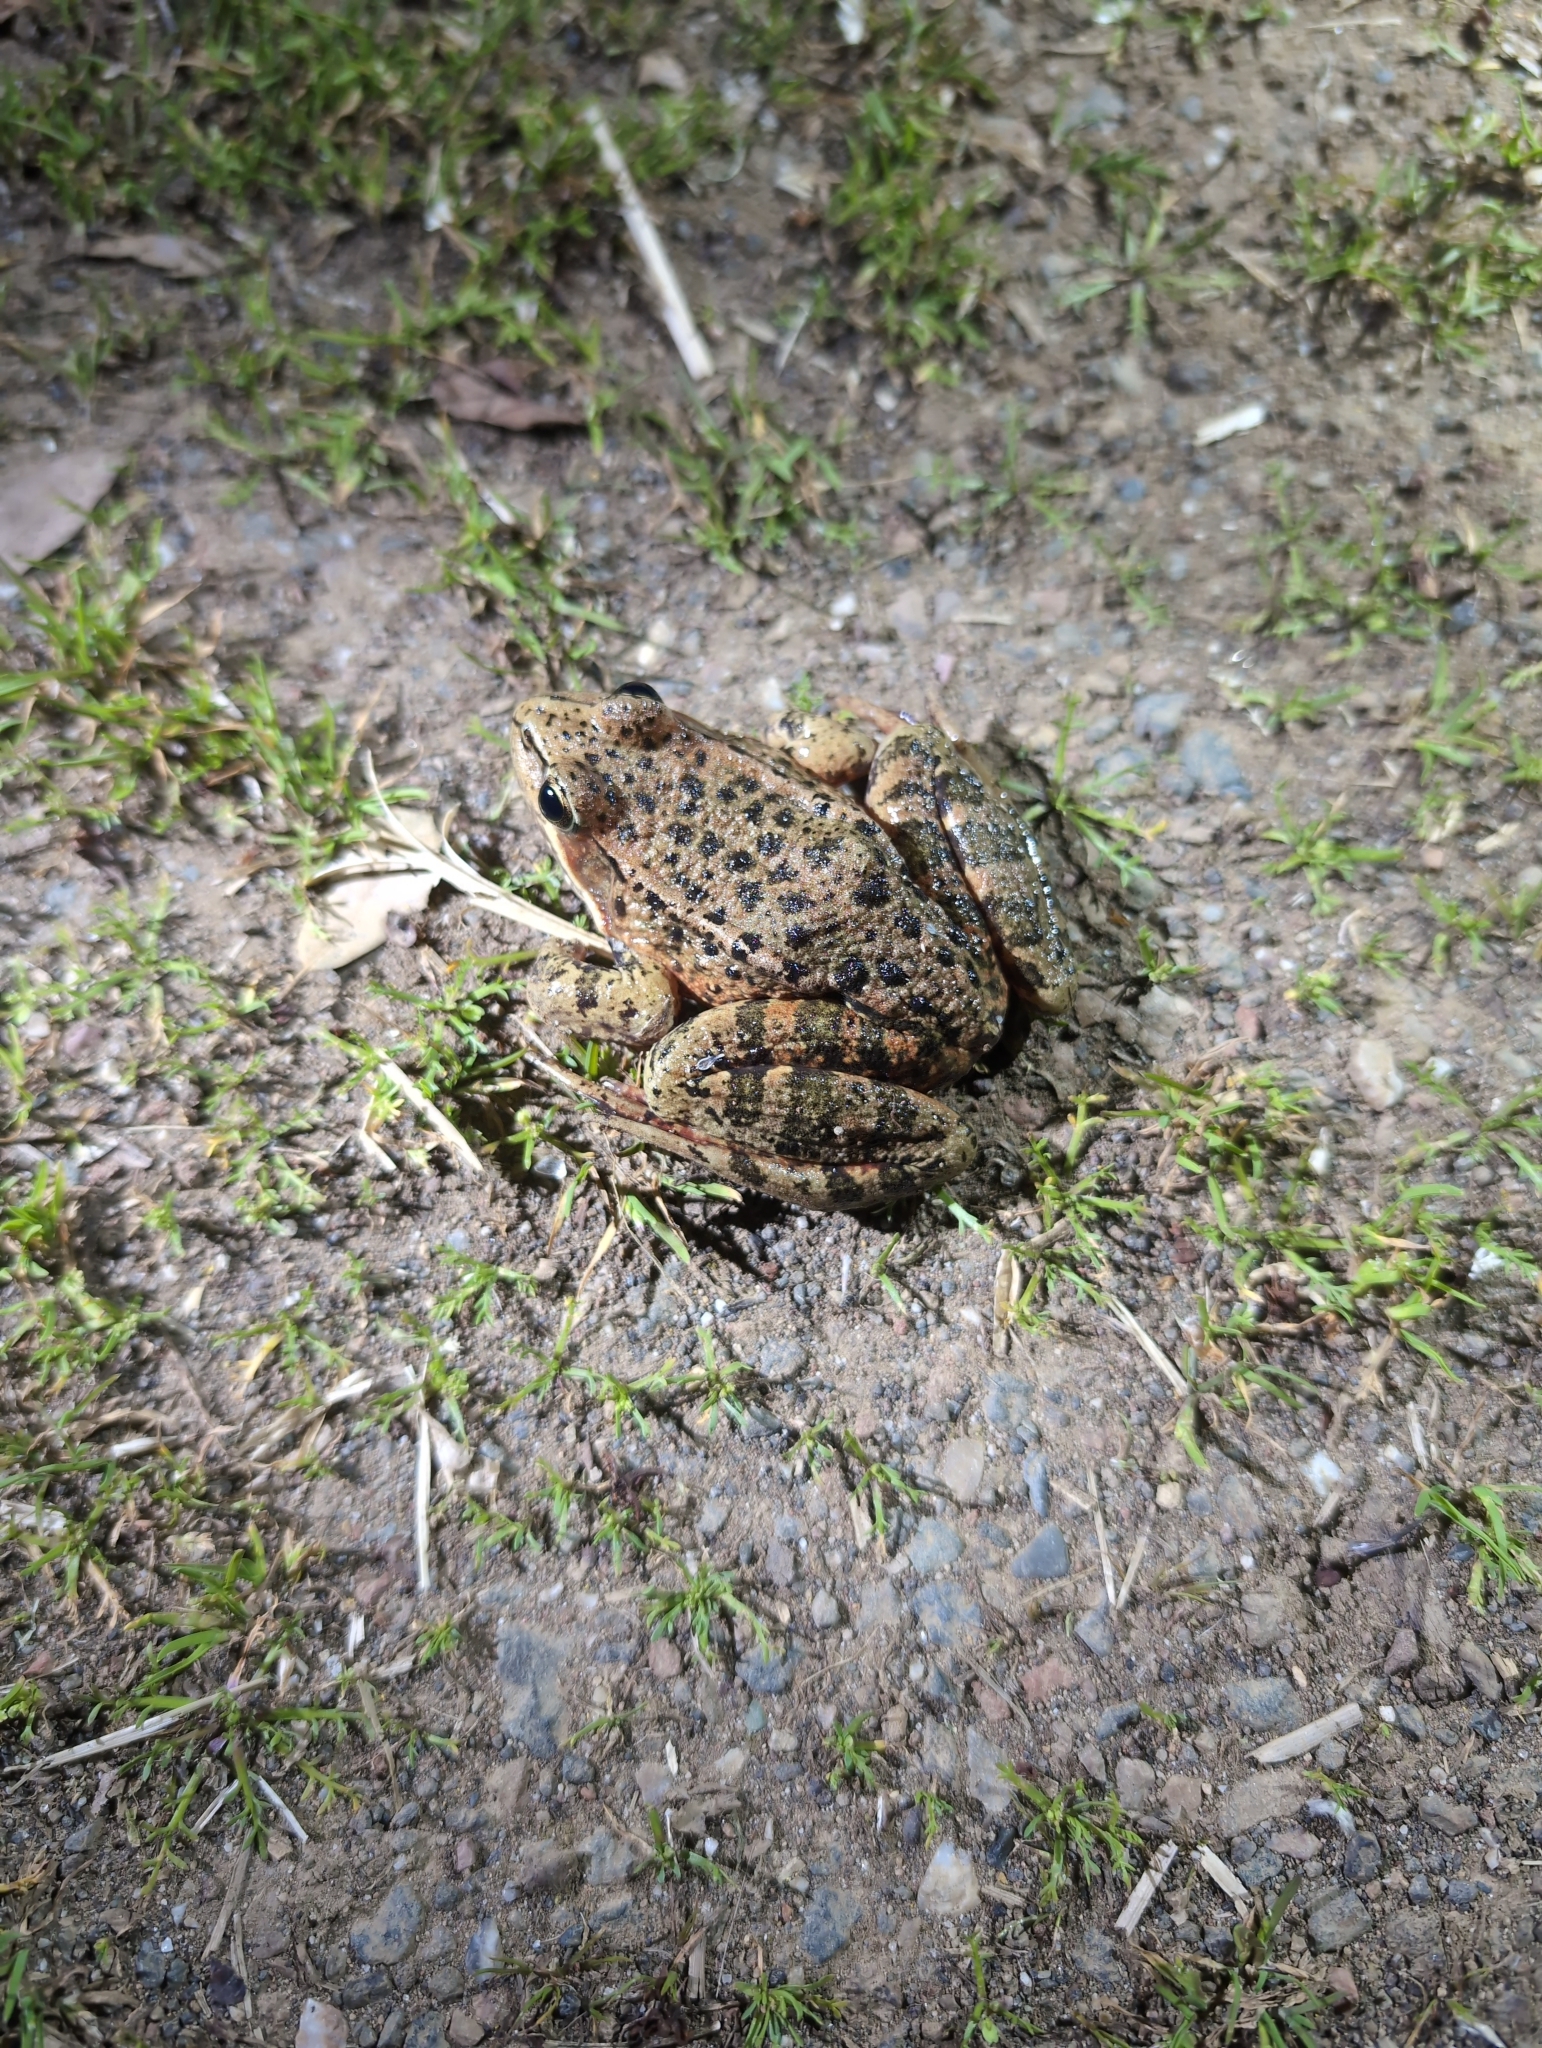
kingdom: Animalia
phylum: Chordata
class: Amphibia
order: Anura
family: Ranidae
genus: Rana
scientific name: Rana draytonii
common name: California red-legged frog
